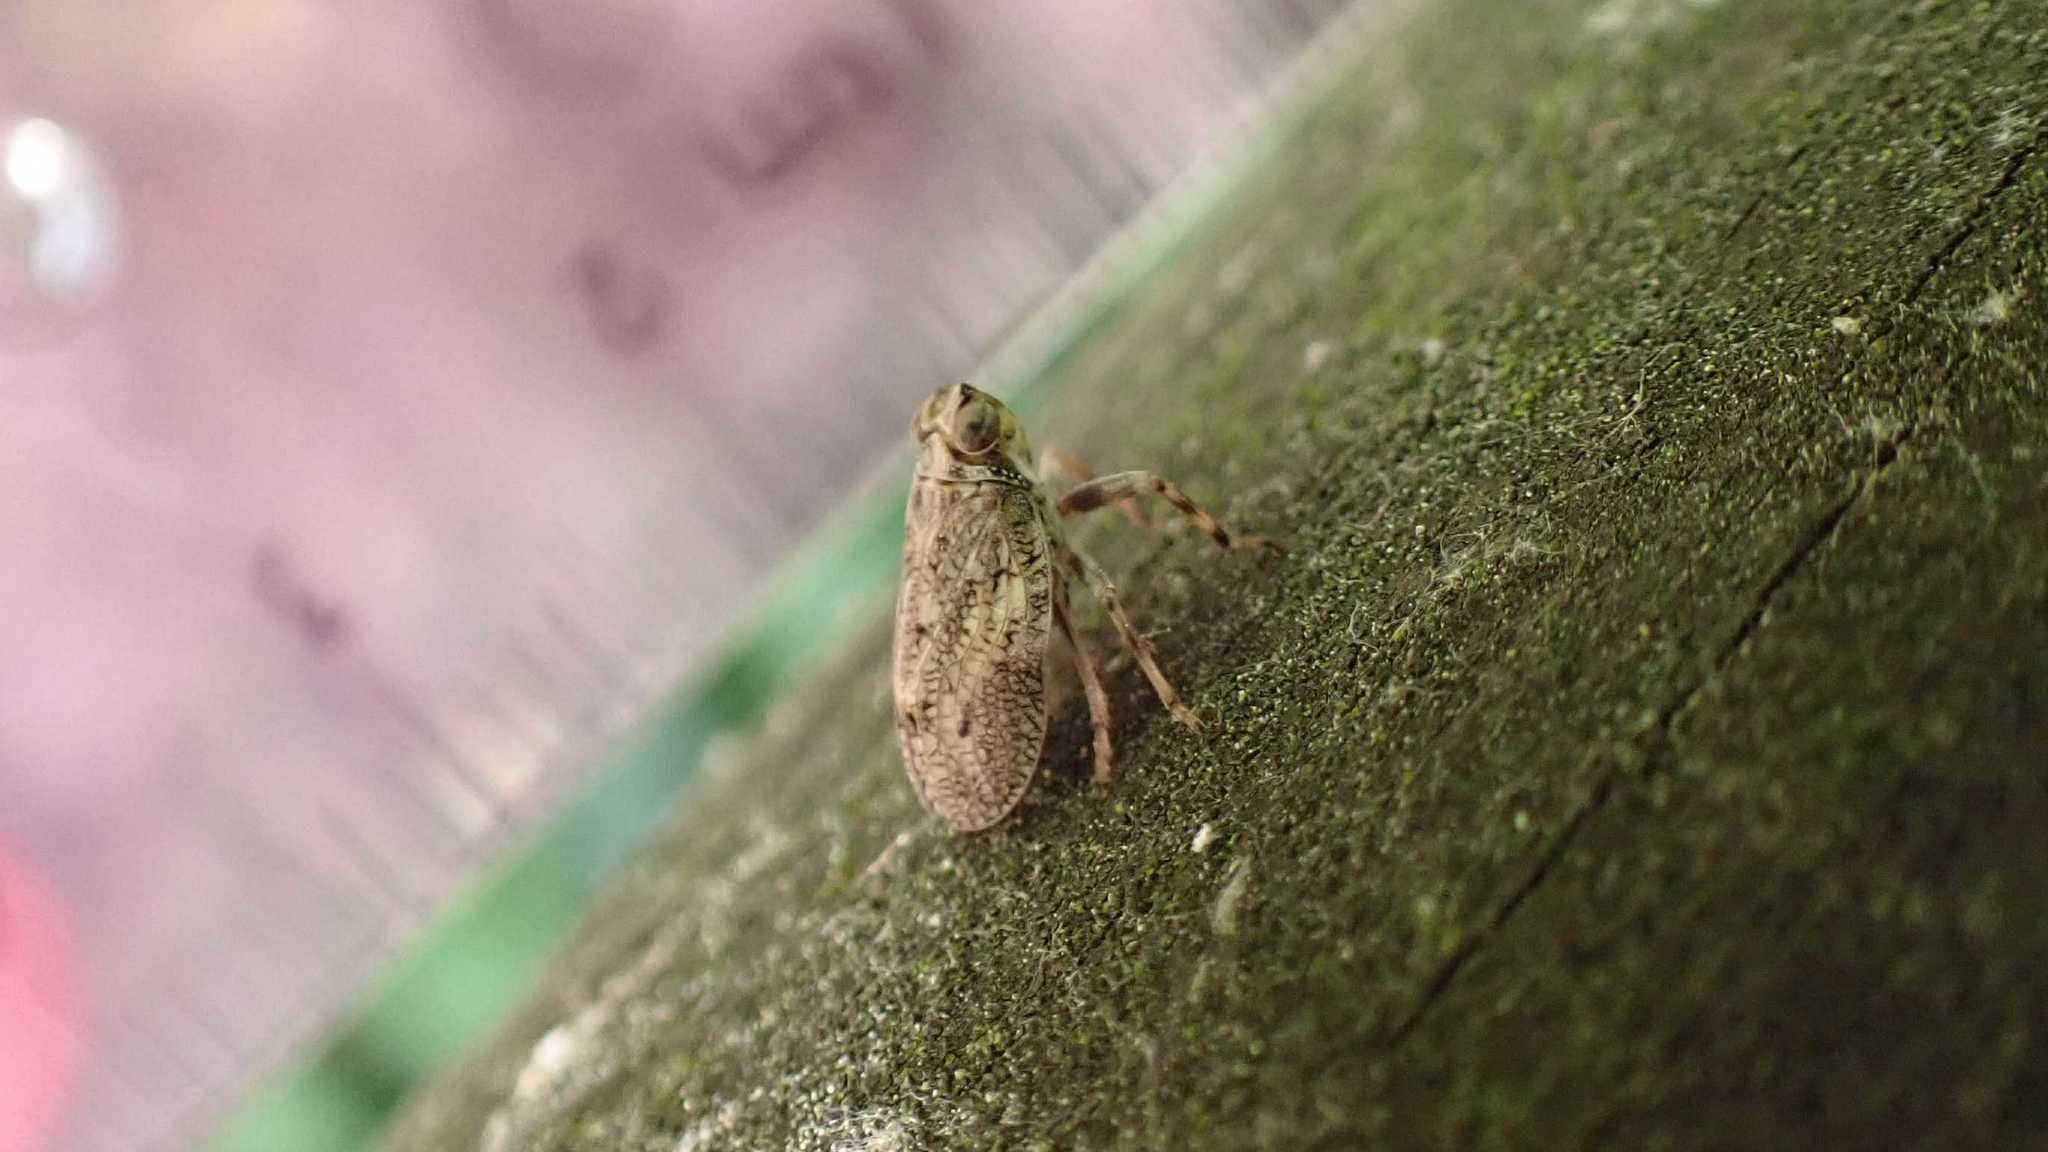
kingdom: Animalia
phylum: Arthropoda
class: Insecta
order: Hemiptera
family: Issidae
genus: Issus
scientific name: Issus coleoptratus
